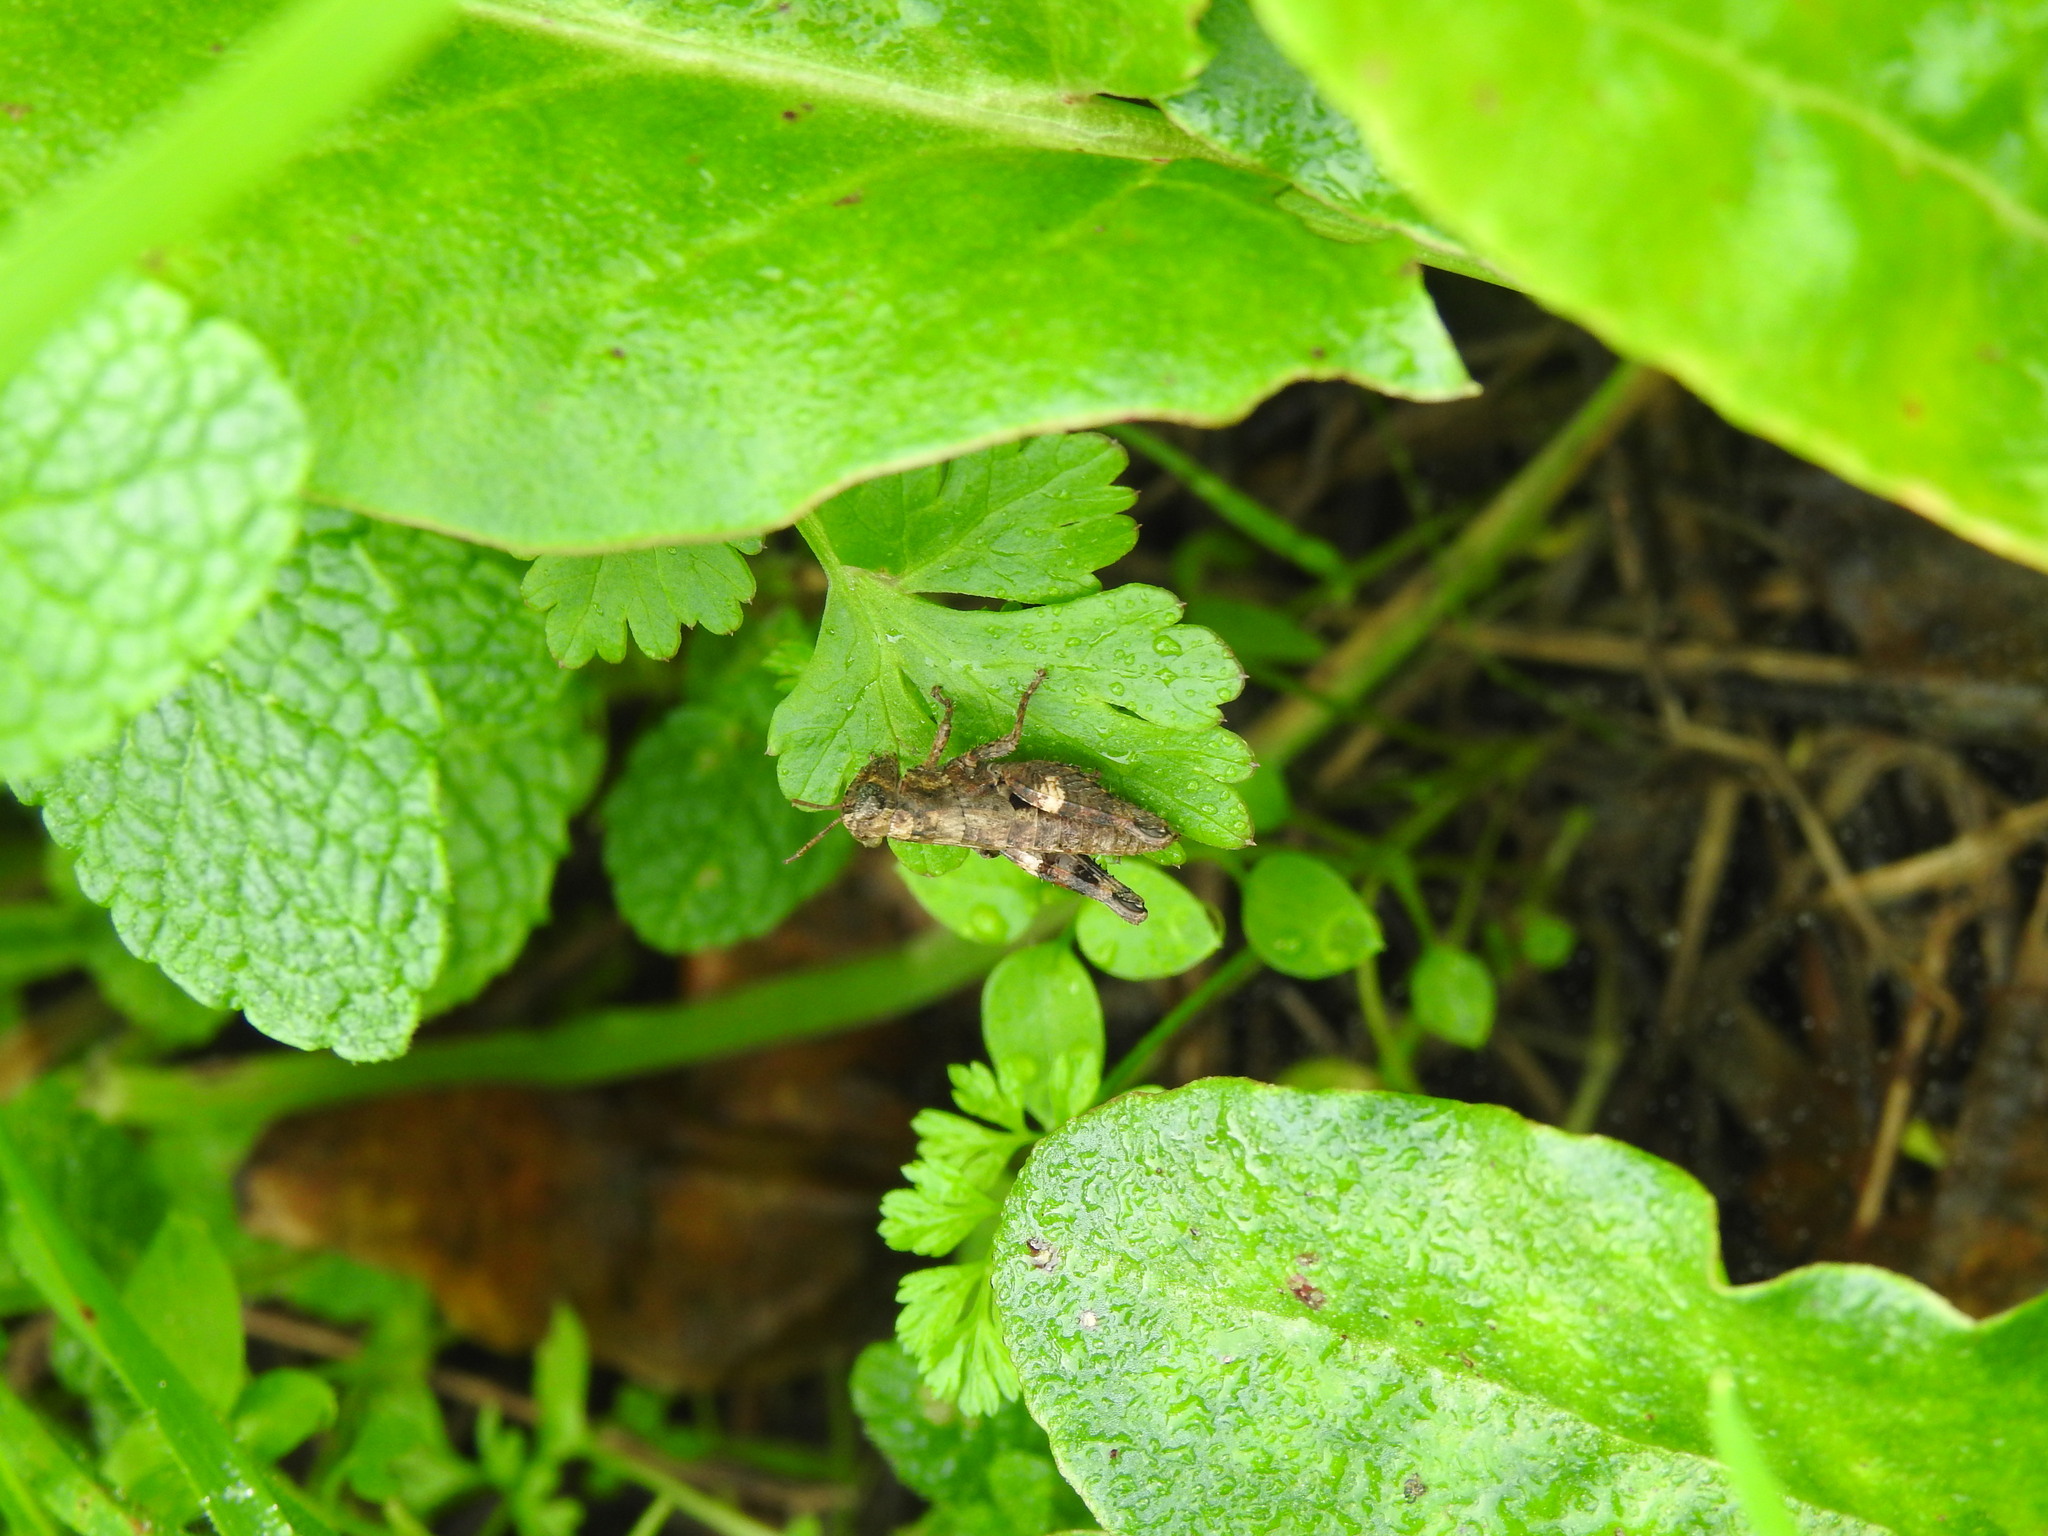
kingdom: Animalia
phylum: Arthropoda
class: Insecta
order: Orthoptera
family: Acrididae
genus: Pezotettix
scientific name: Pezotettix giornae
